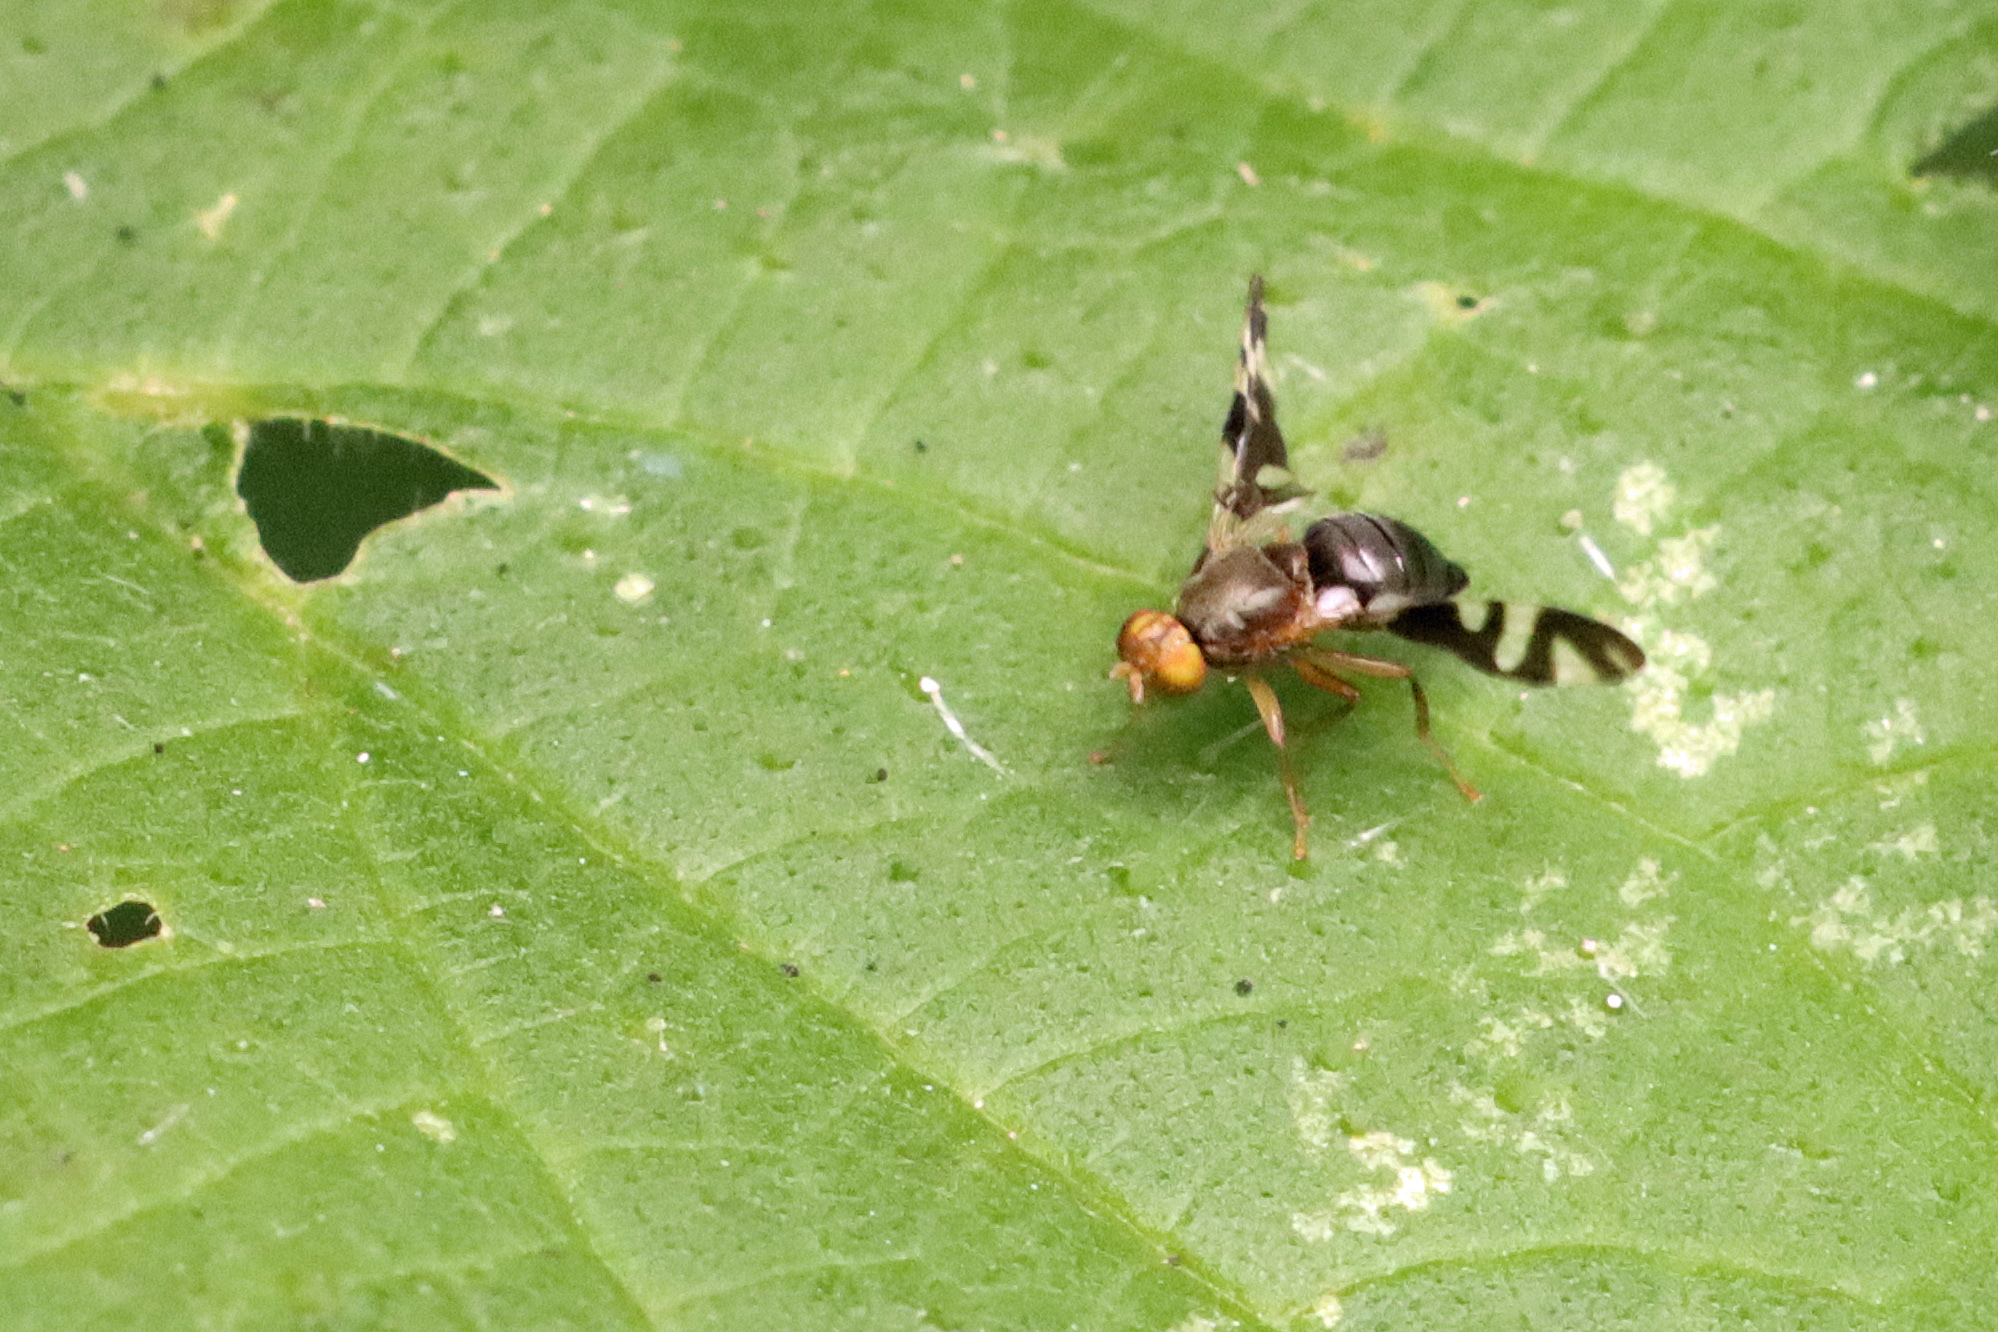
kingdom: Animalia
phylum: Arthropoda
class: Insecta
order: Diptera
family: Tephritidae
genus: Philophylla
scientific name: Philophylla caesio
